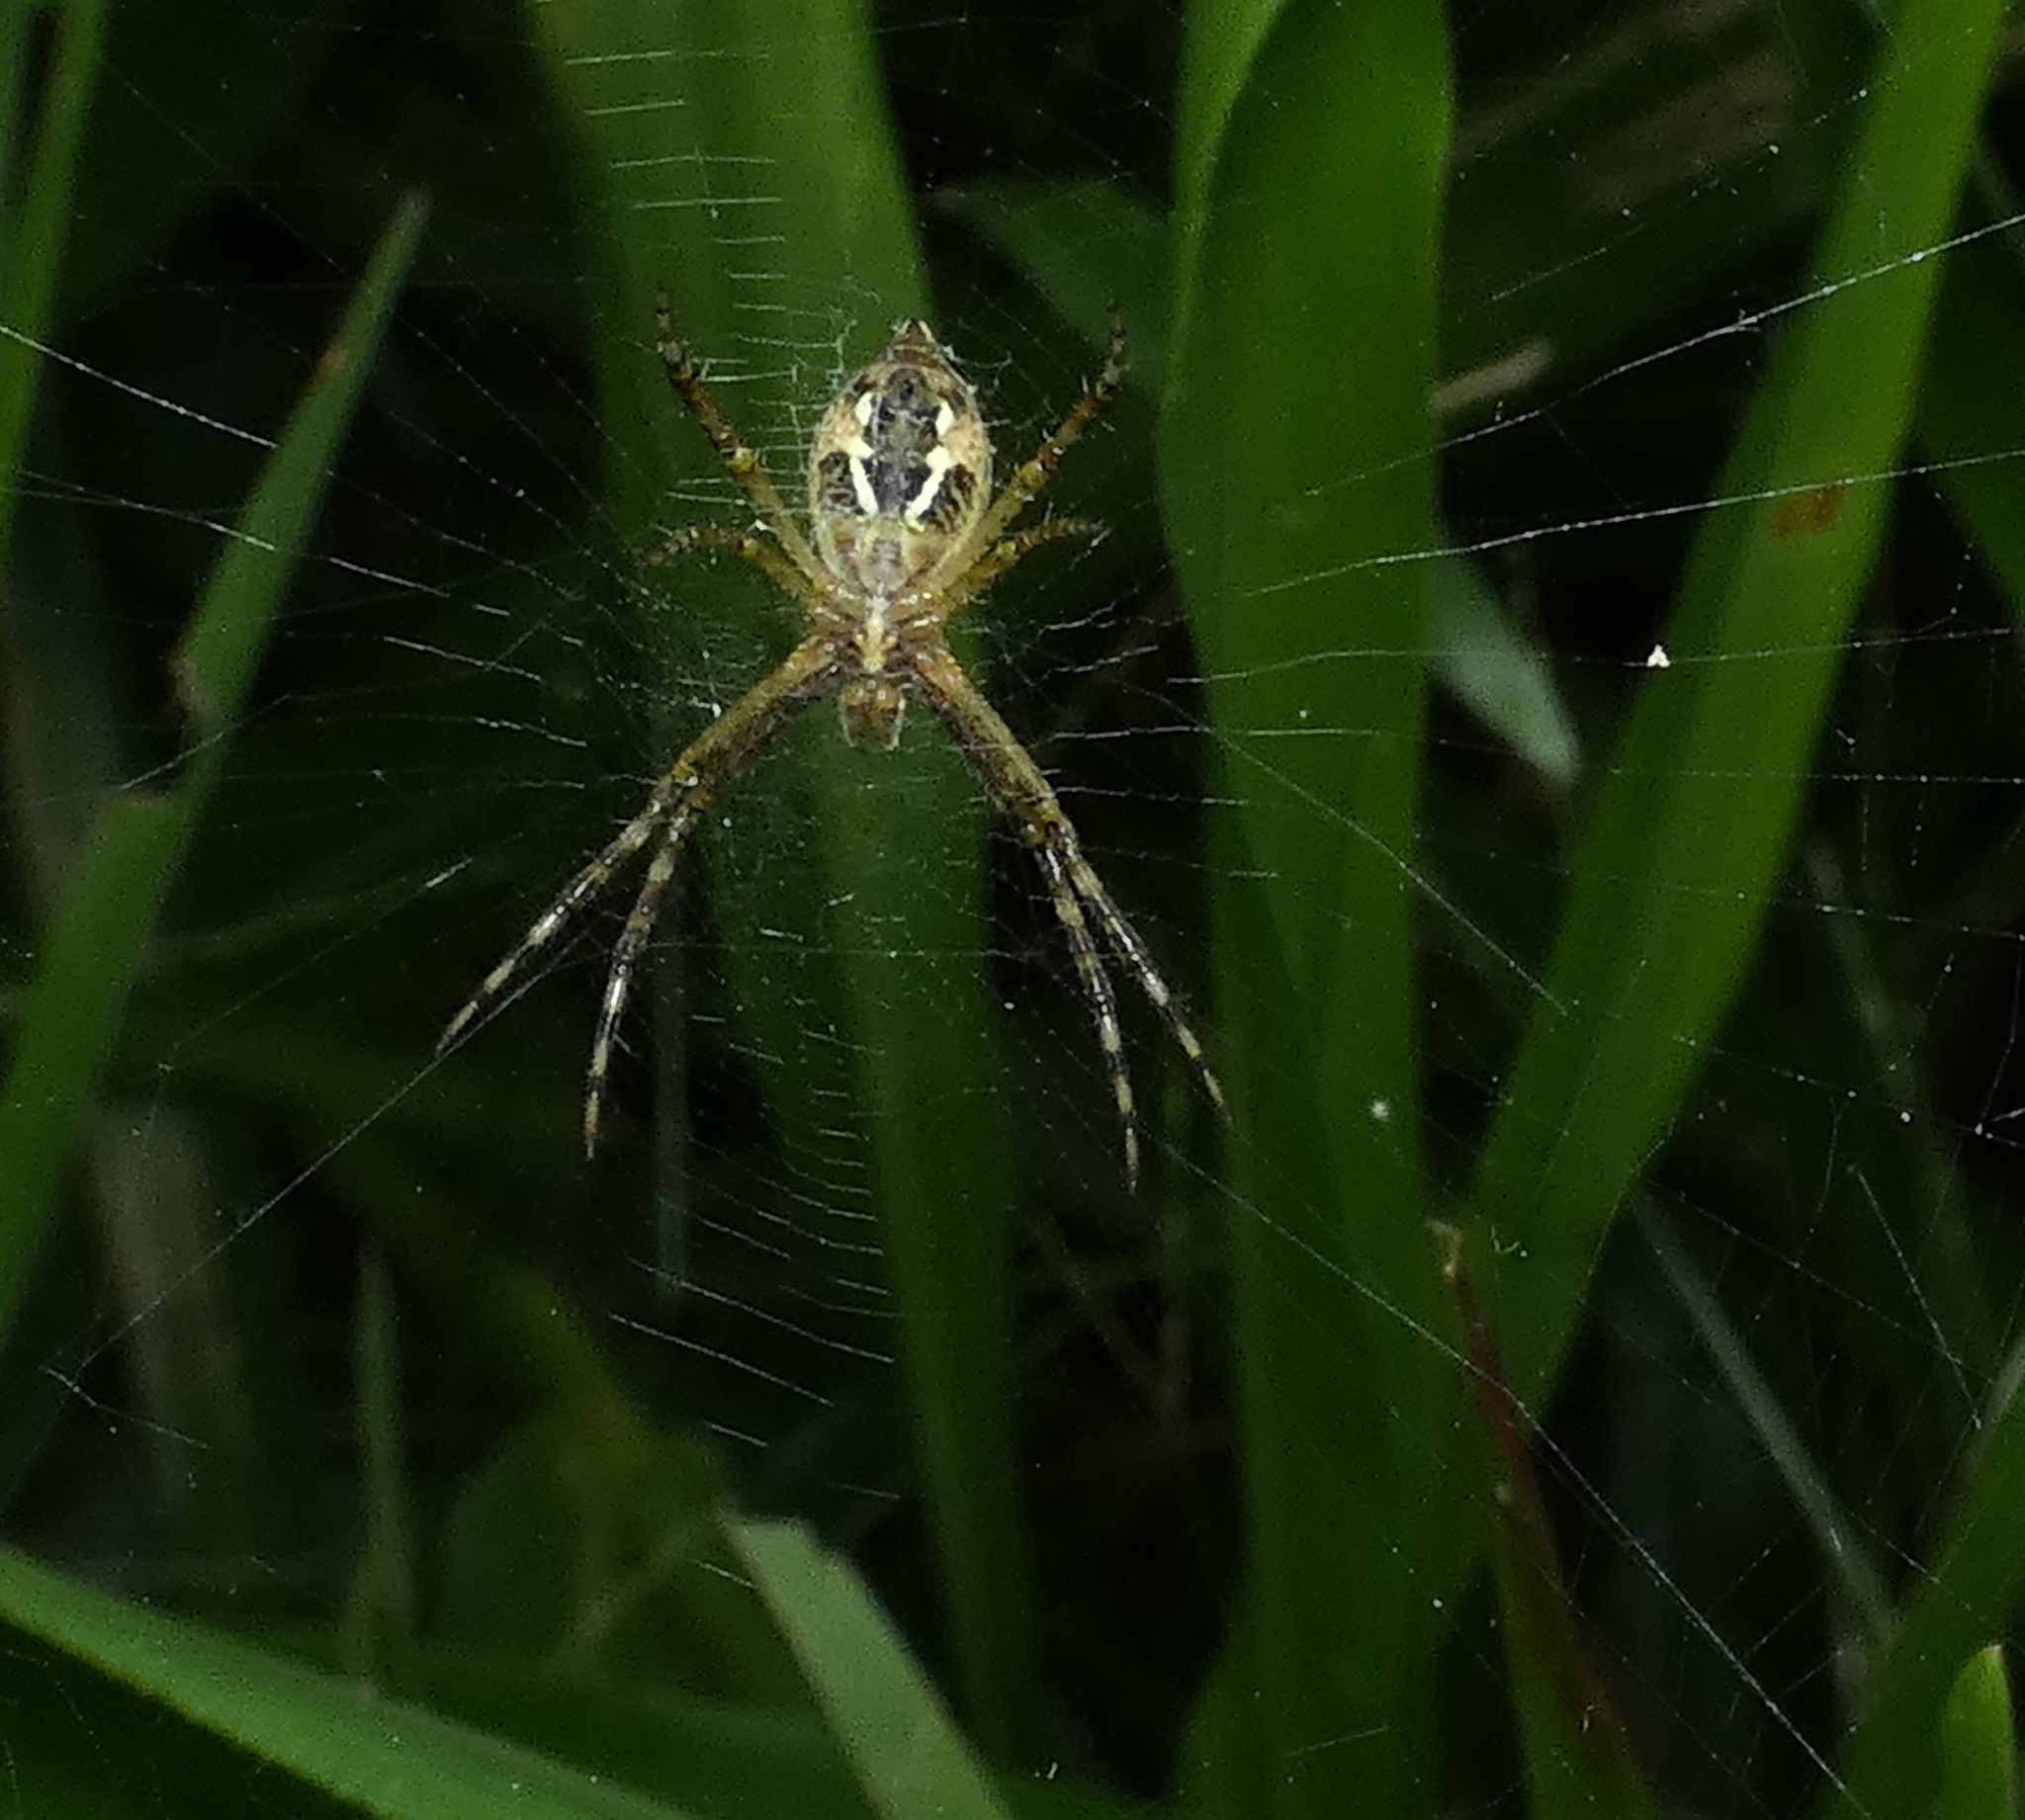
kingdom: Animalia
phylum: Arthropoda
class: Arachnida
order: Araneae
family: Araneidae
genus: Argiope
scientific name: Argiope argentata
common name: Orb weavers
